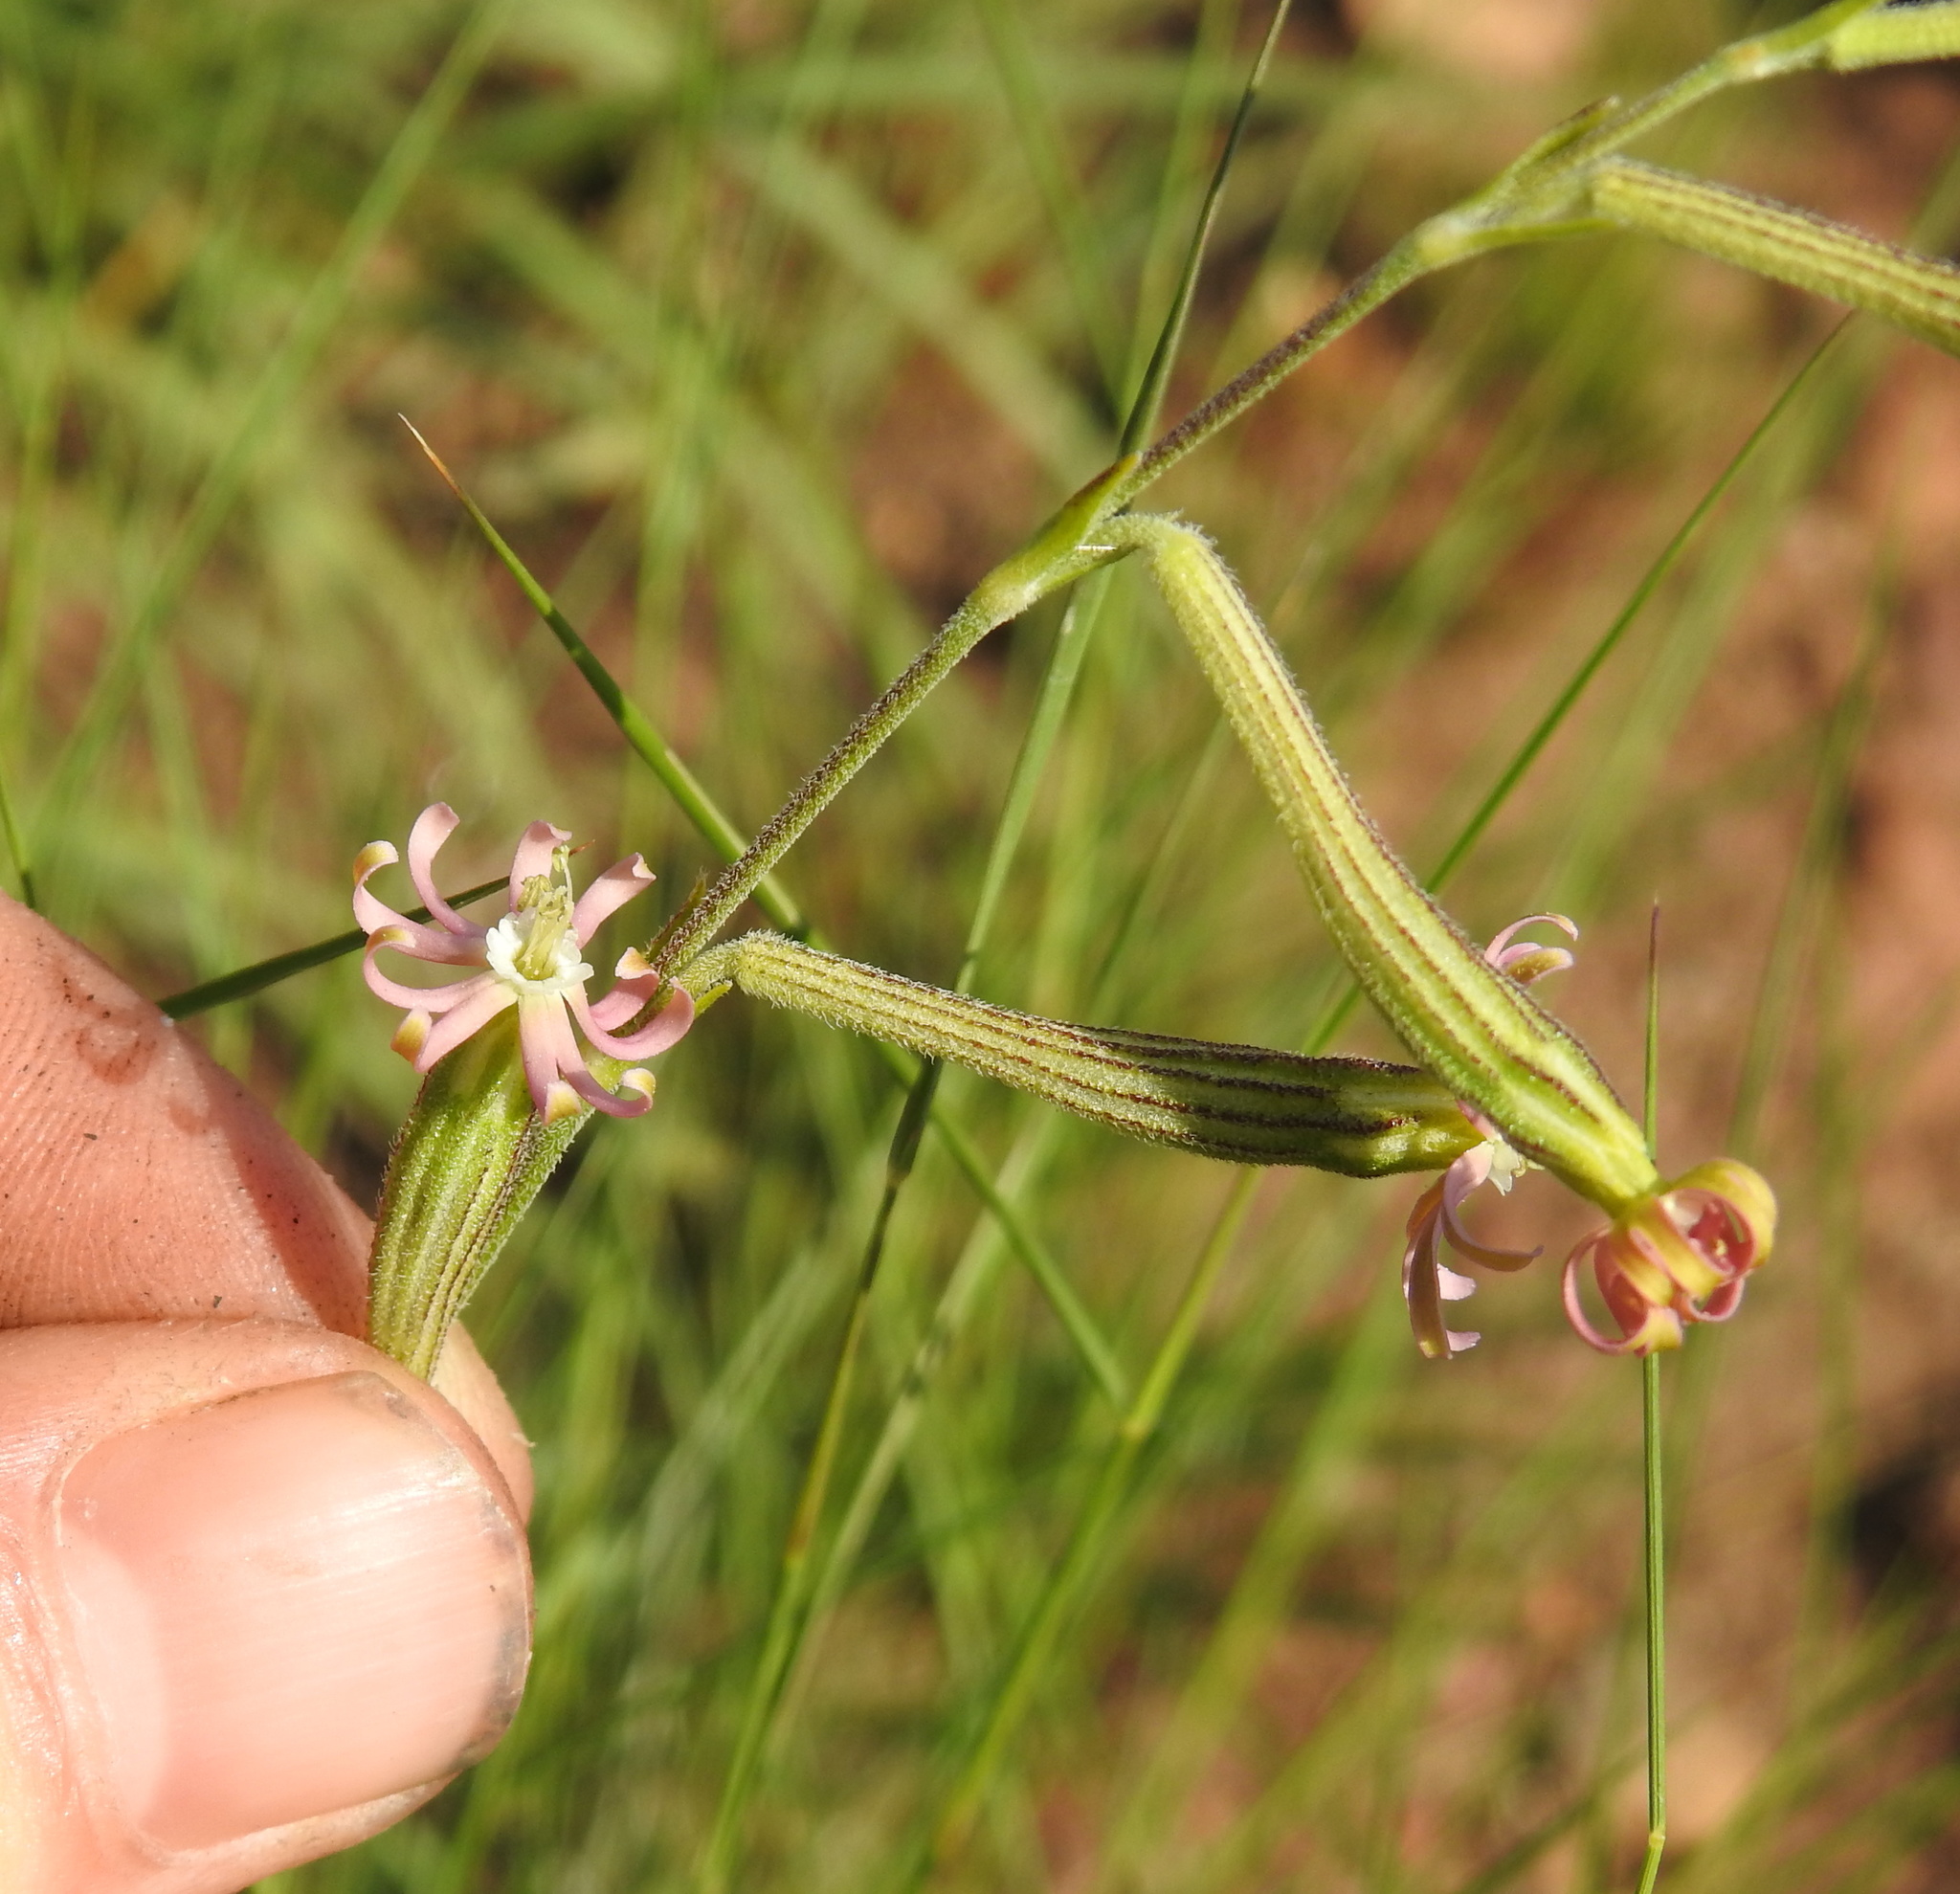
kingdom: Plantae
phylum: Tracheophyta
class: Magnoliopsida
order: Caryophyllales
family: Caryophyllaceae
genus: Silene
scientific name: Silene burchellii
